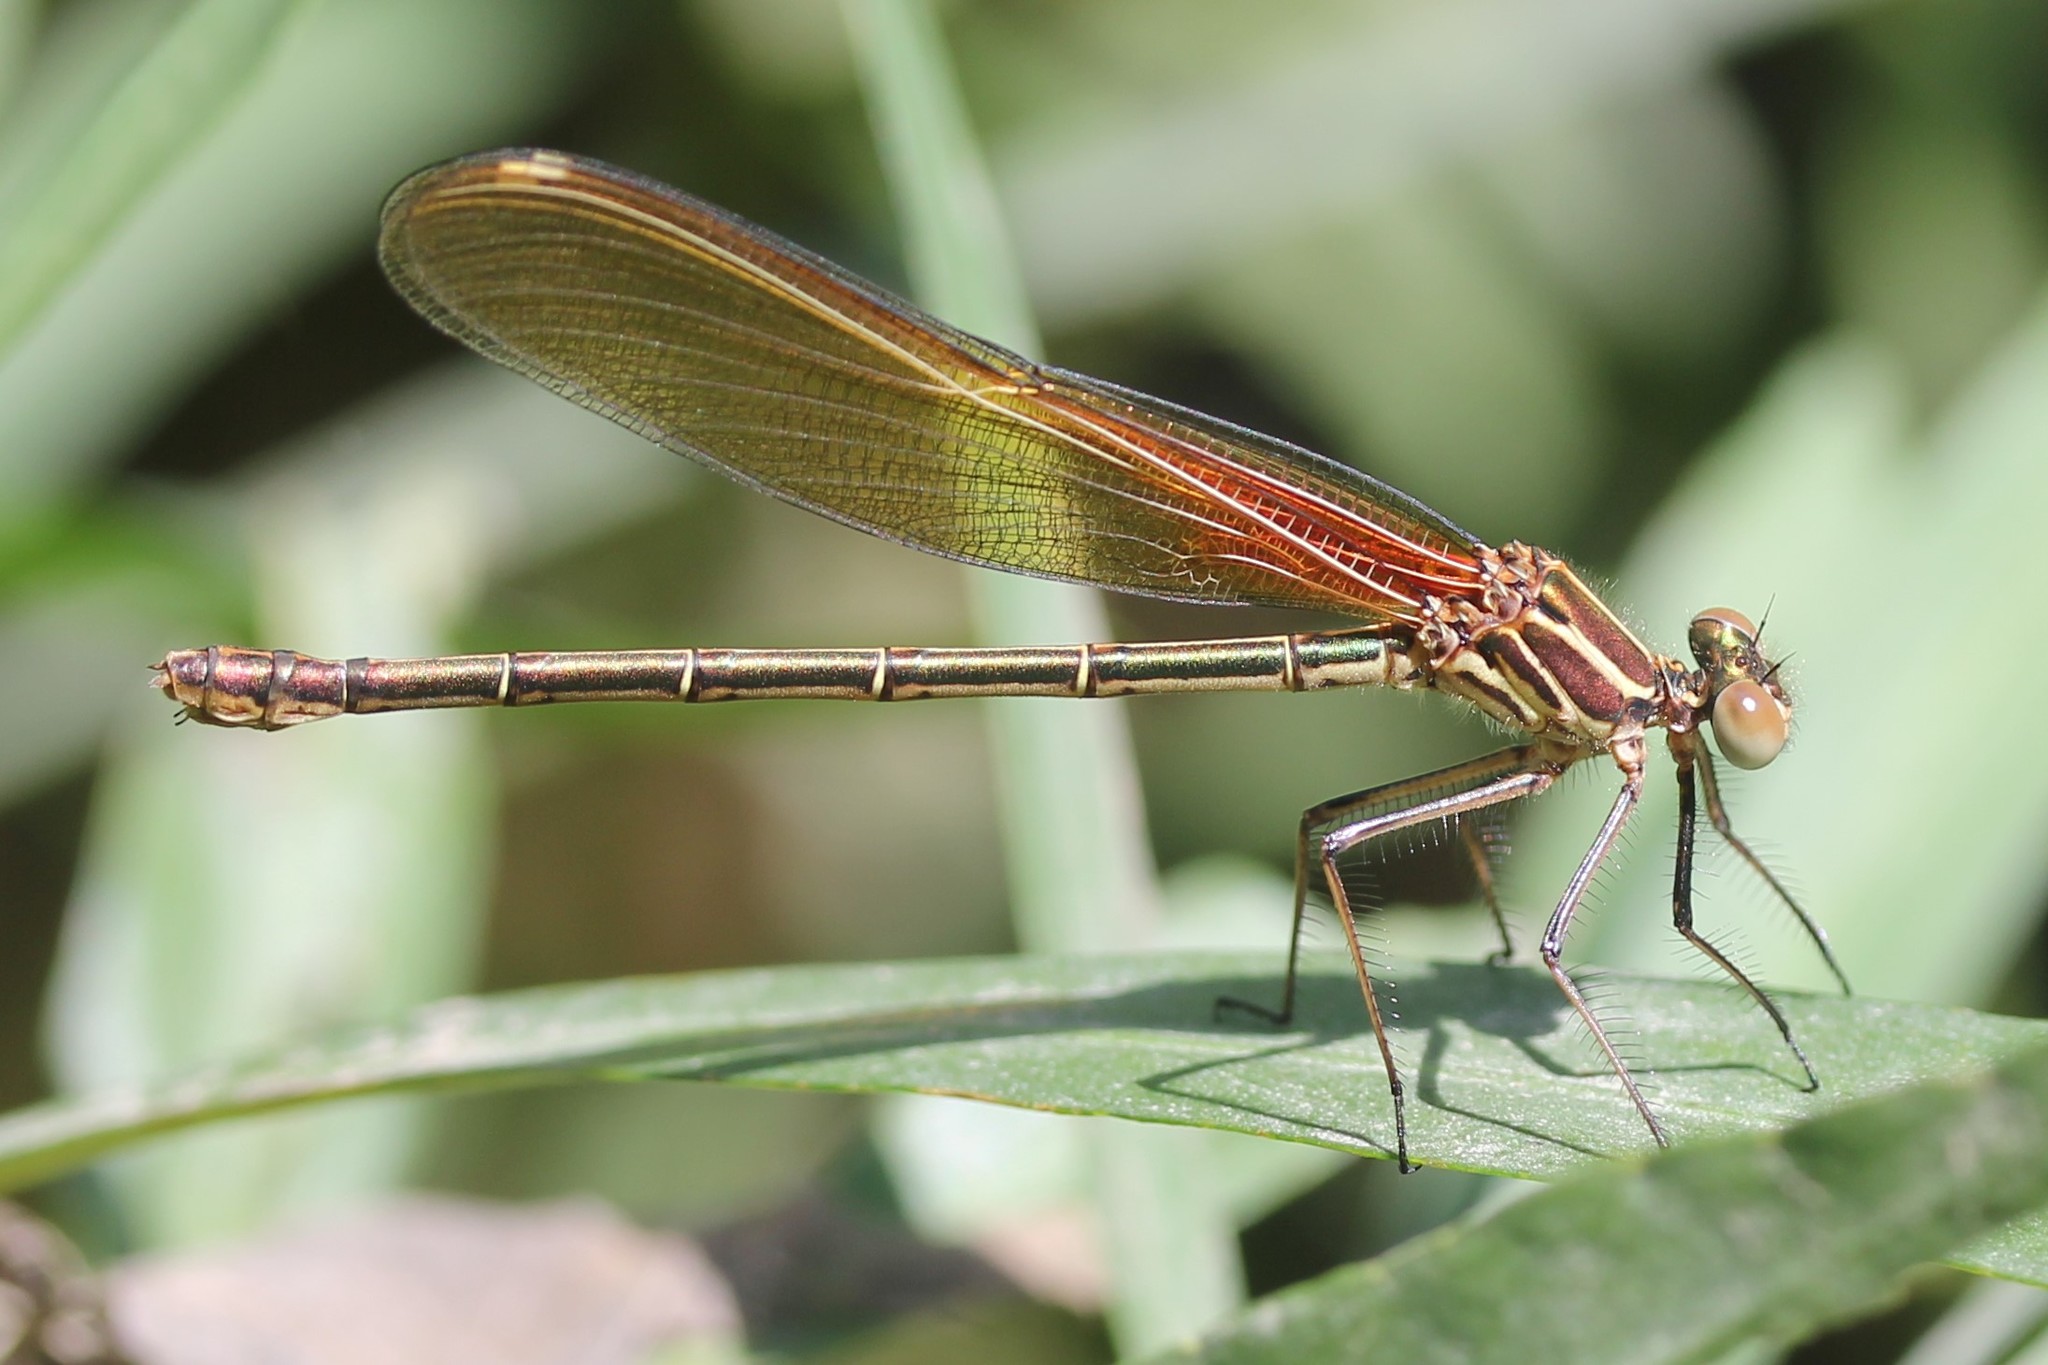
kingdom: Animalia
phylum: Arthropoda
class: Insecta
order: Odonata
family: Calopterygidae
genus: Hetaerina
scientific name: Hetaerina americana
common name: American rubyspot
